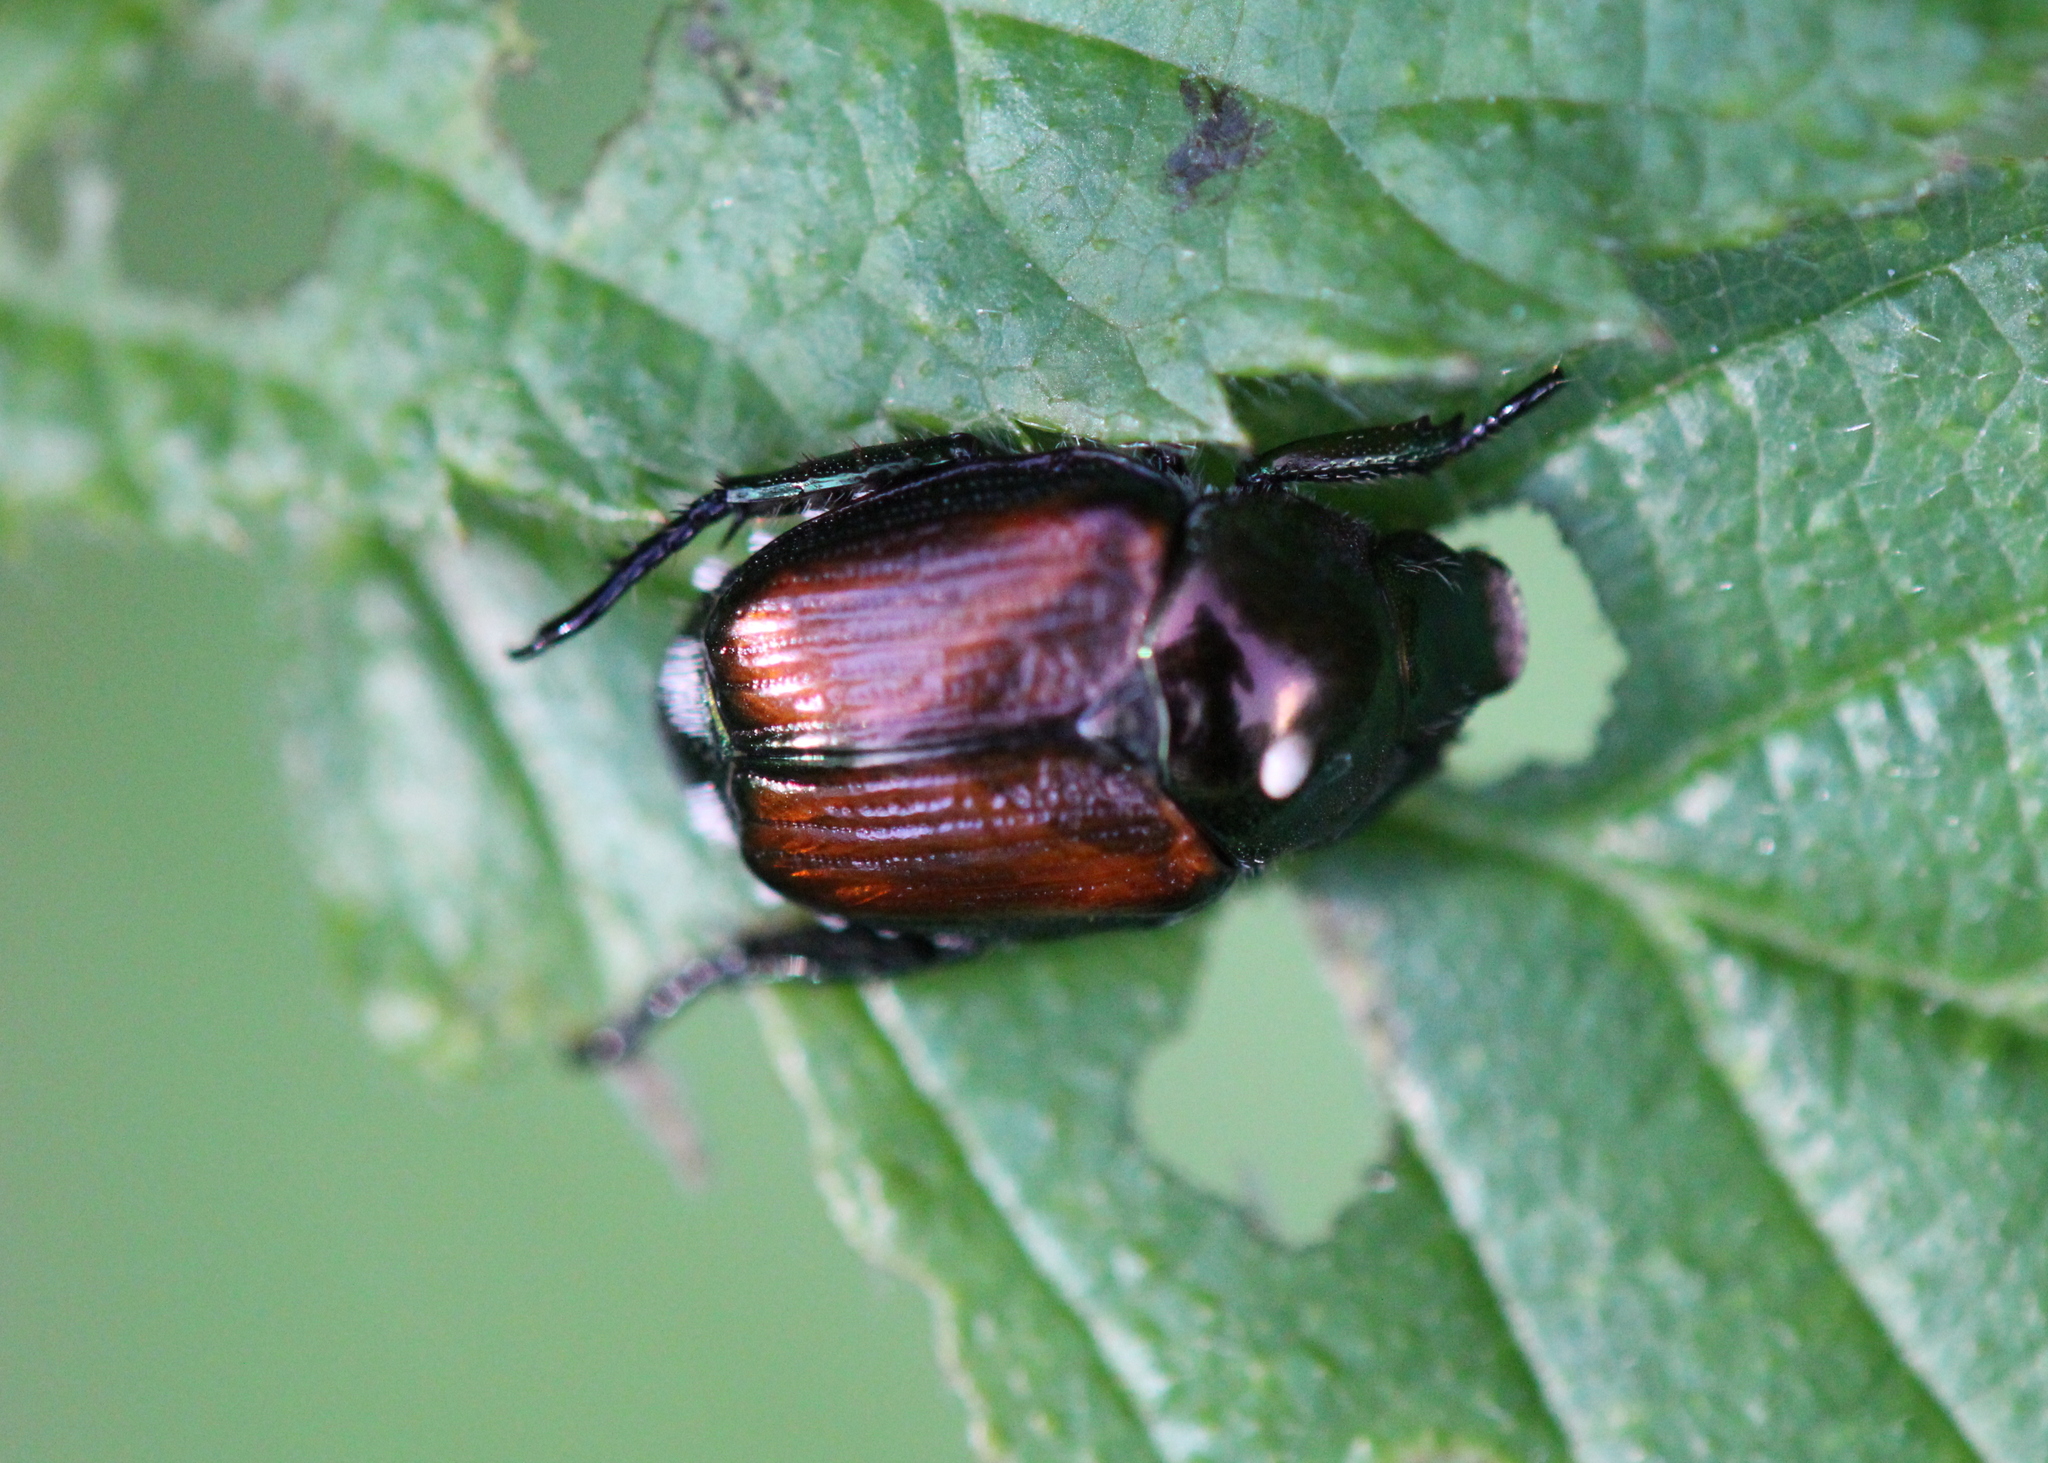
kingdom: Animalia
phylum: Arthropoda
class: Insecta
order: Diptera
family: Tachinidae
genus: Istocheta
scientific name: Istocheta aldrichi
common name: Parasitic wasp
